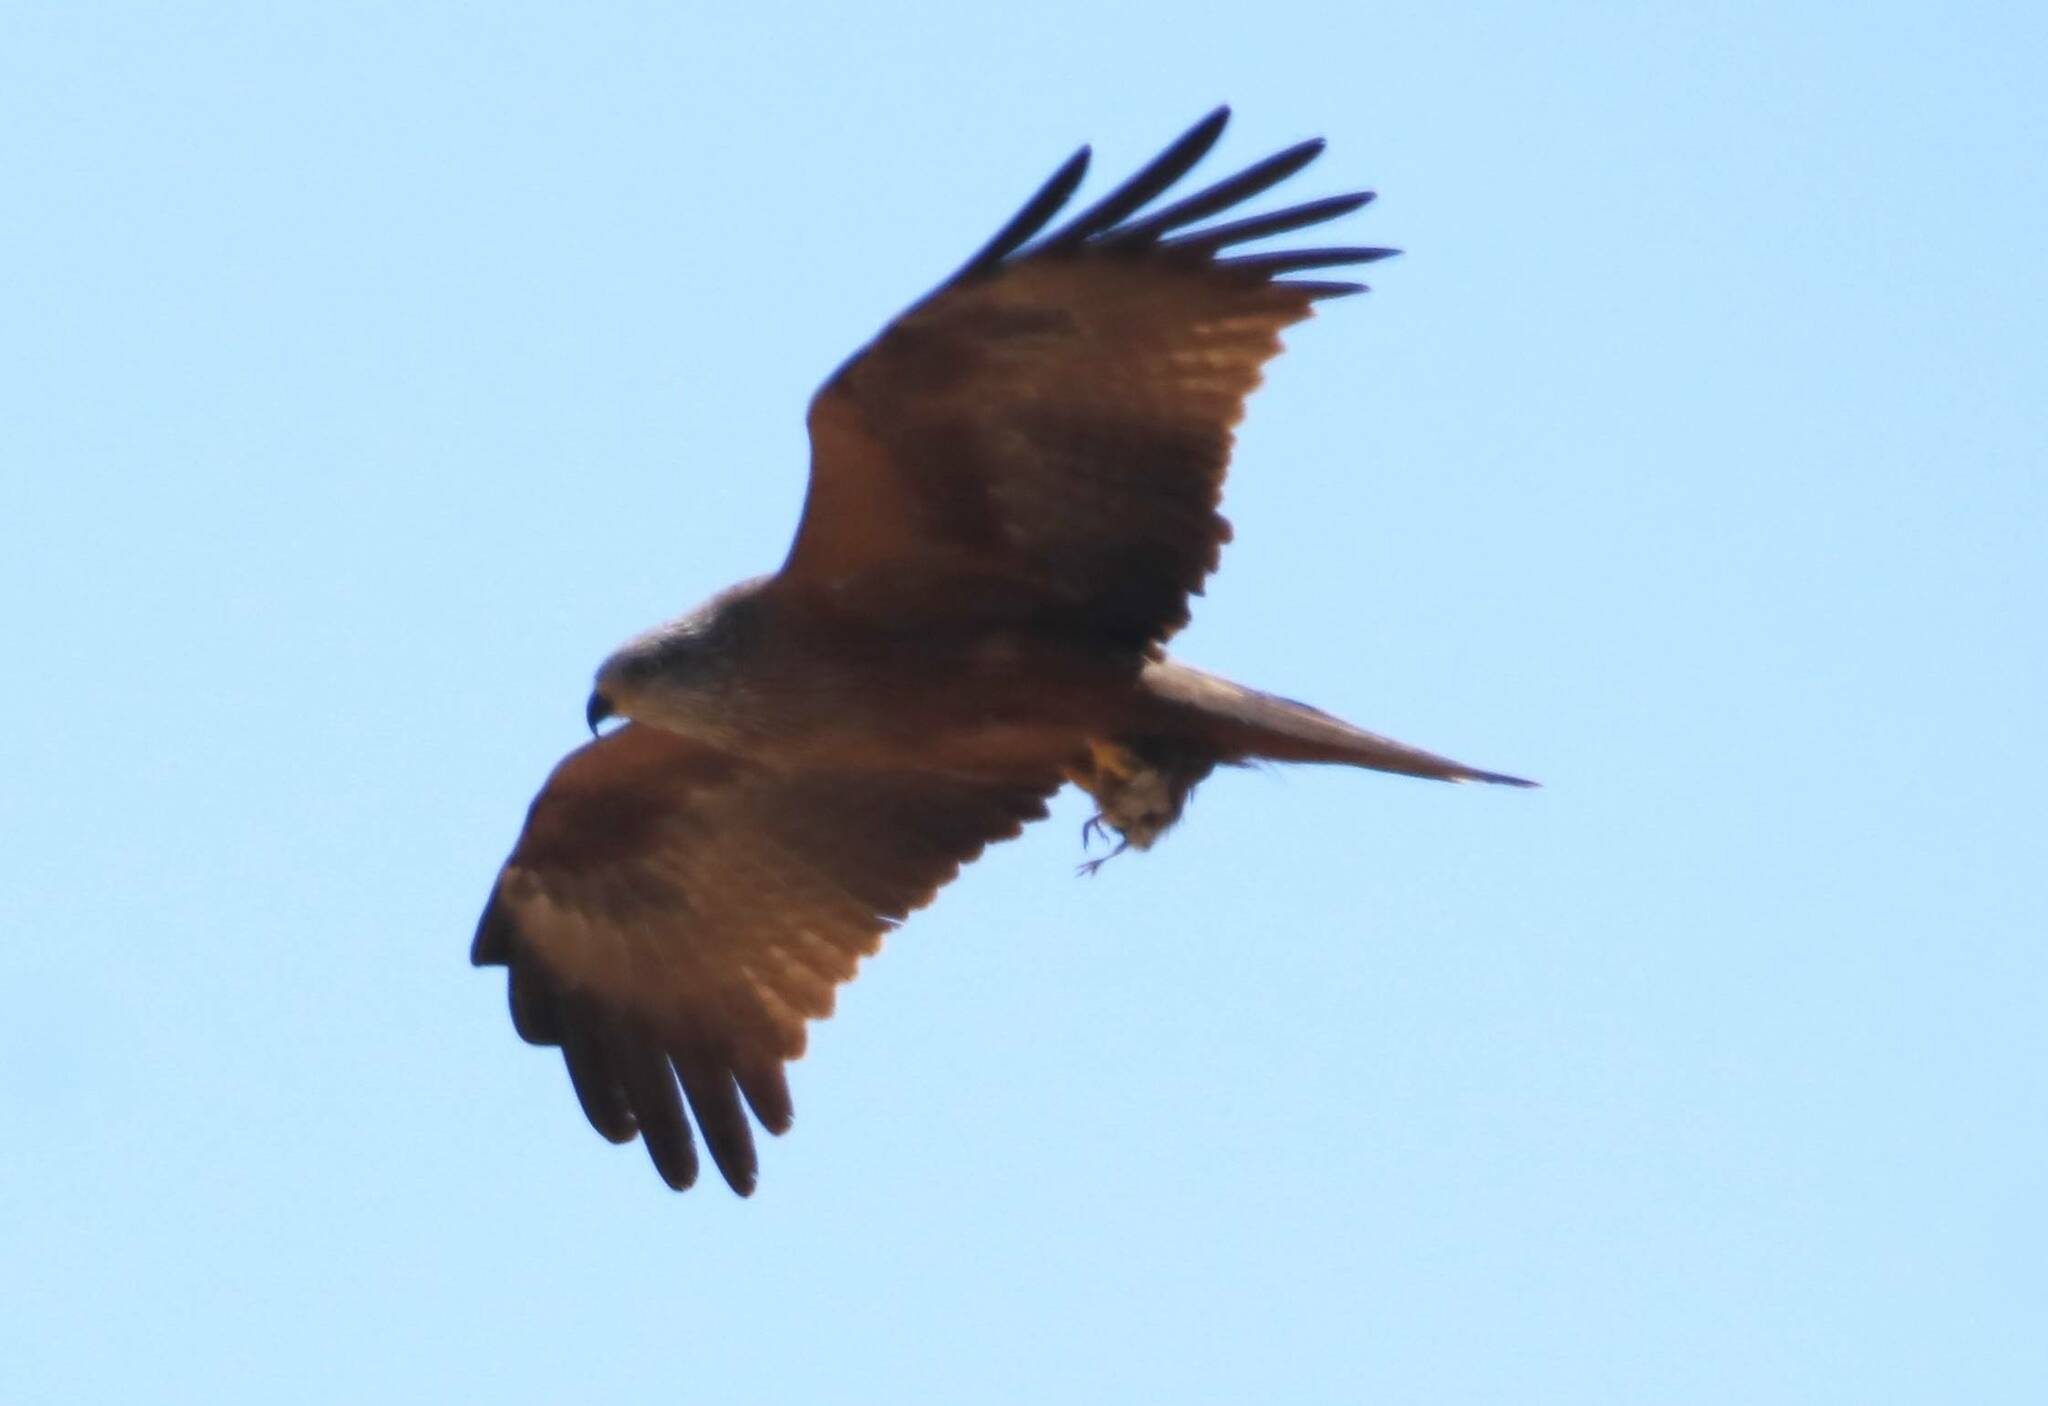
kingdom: Animalia
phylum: Chordata
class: Aves
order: Accipitriformes
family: Accipitridae
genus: Milvus
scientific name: Milvus migrans
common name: Black kite
